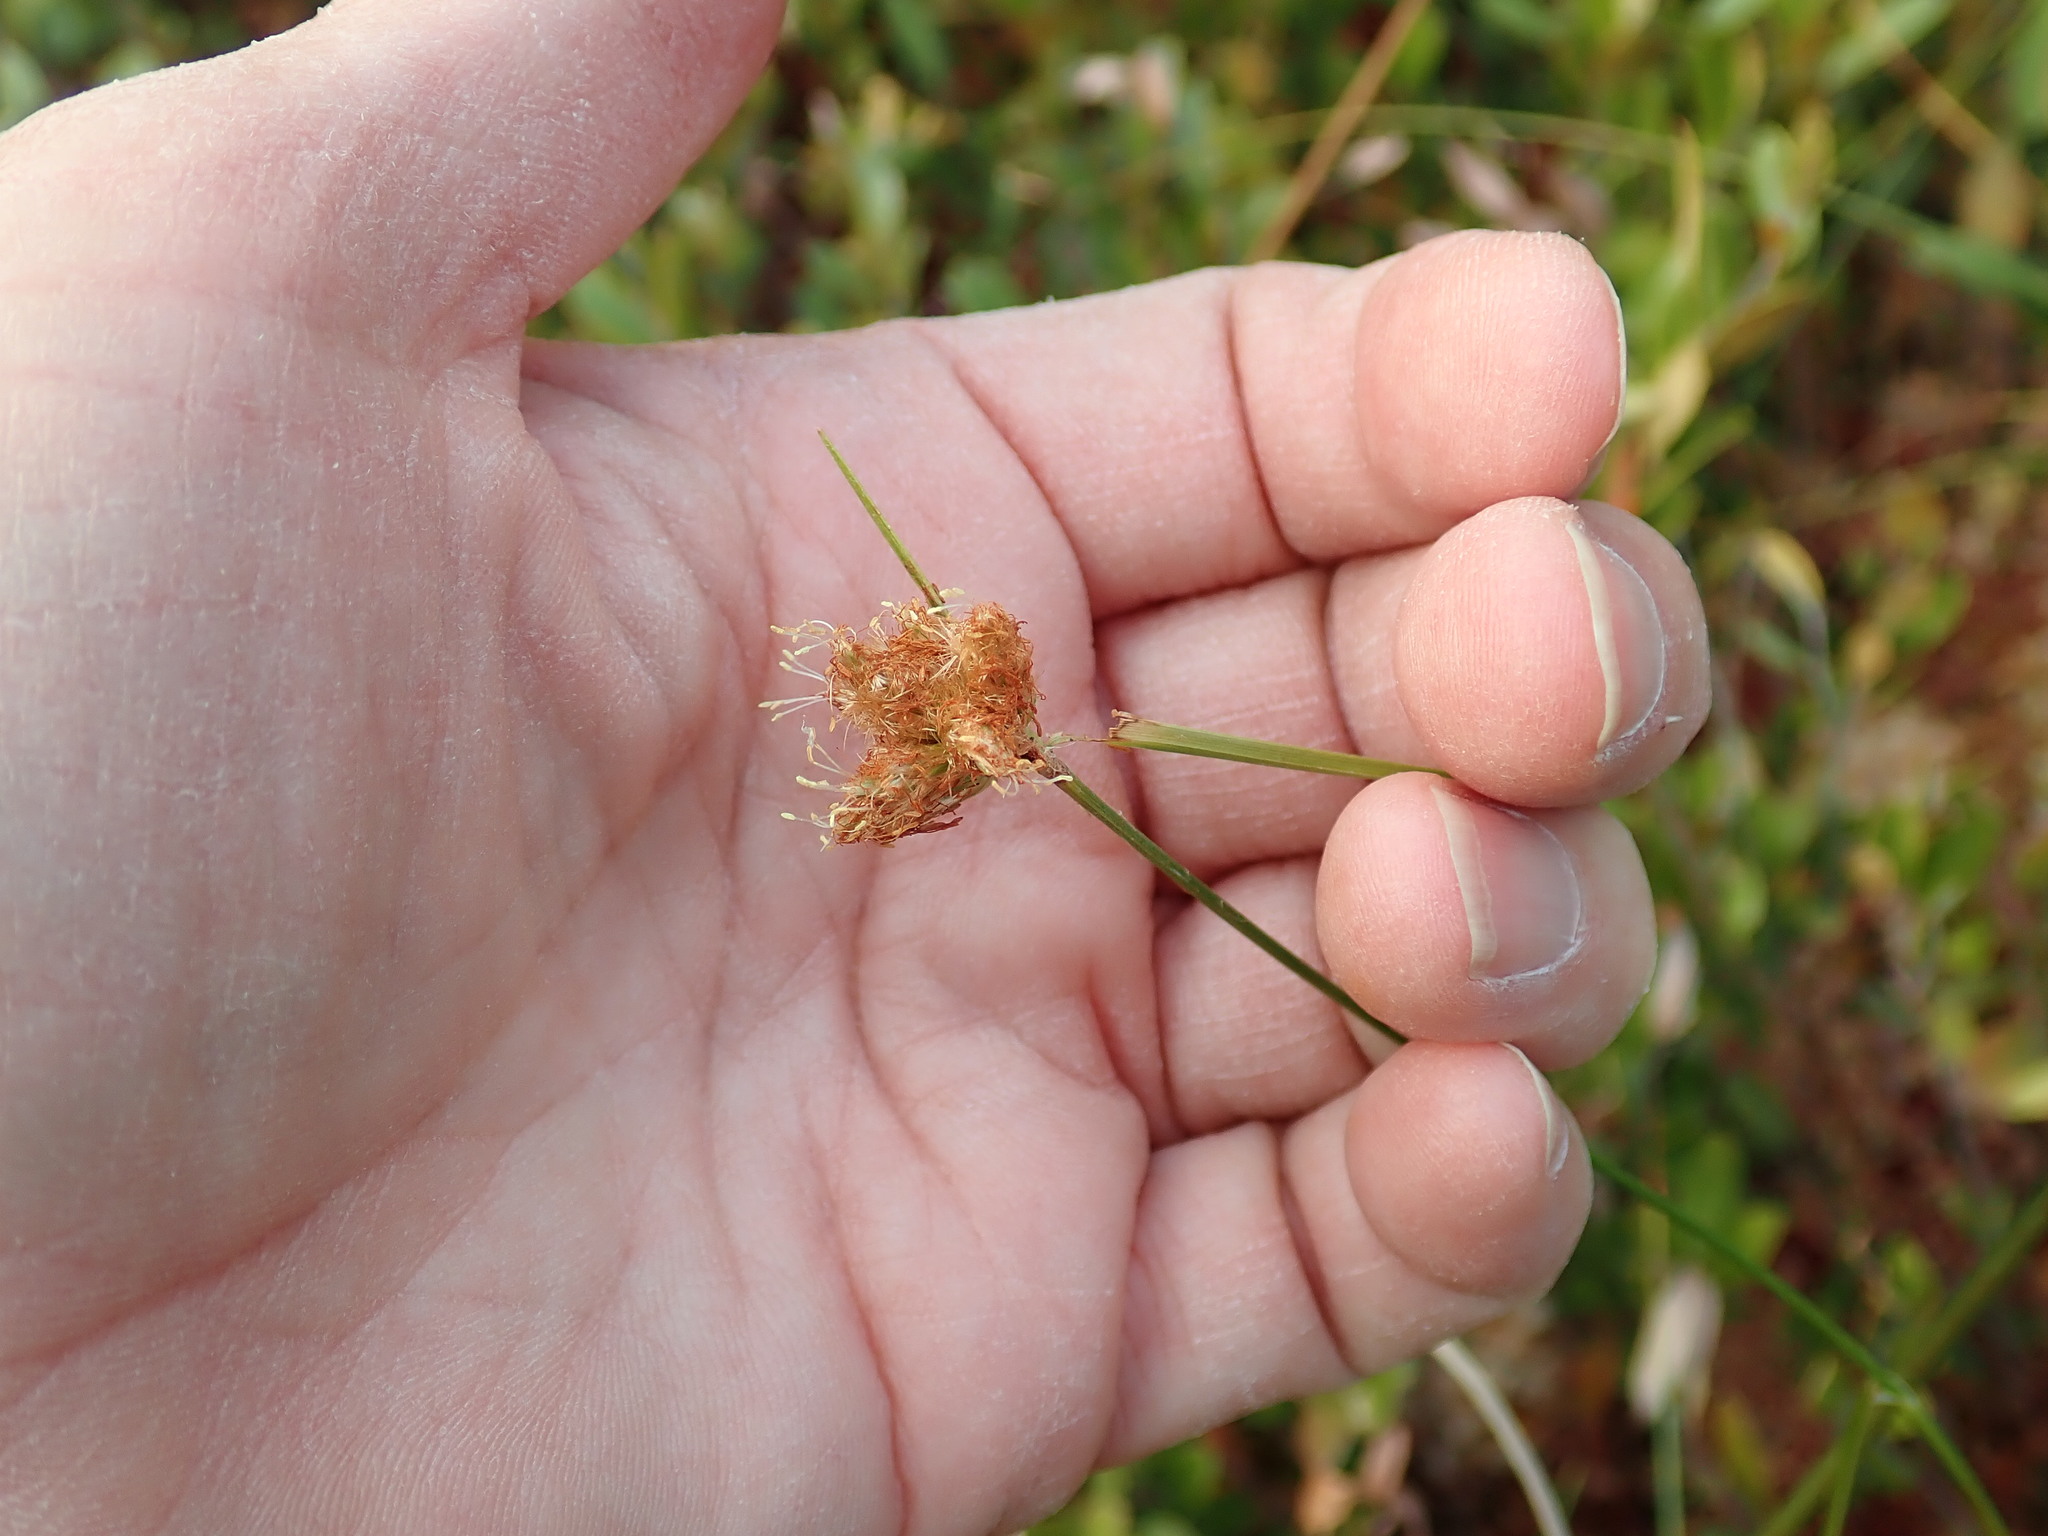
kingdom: Plantae
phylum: Tracheophyta
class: Liliopsida
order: Poales
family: Cyperaceae
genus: Schoenoplectus
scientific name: Schoenoplectus
